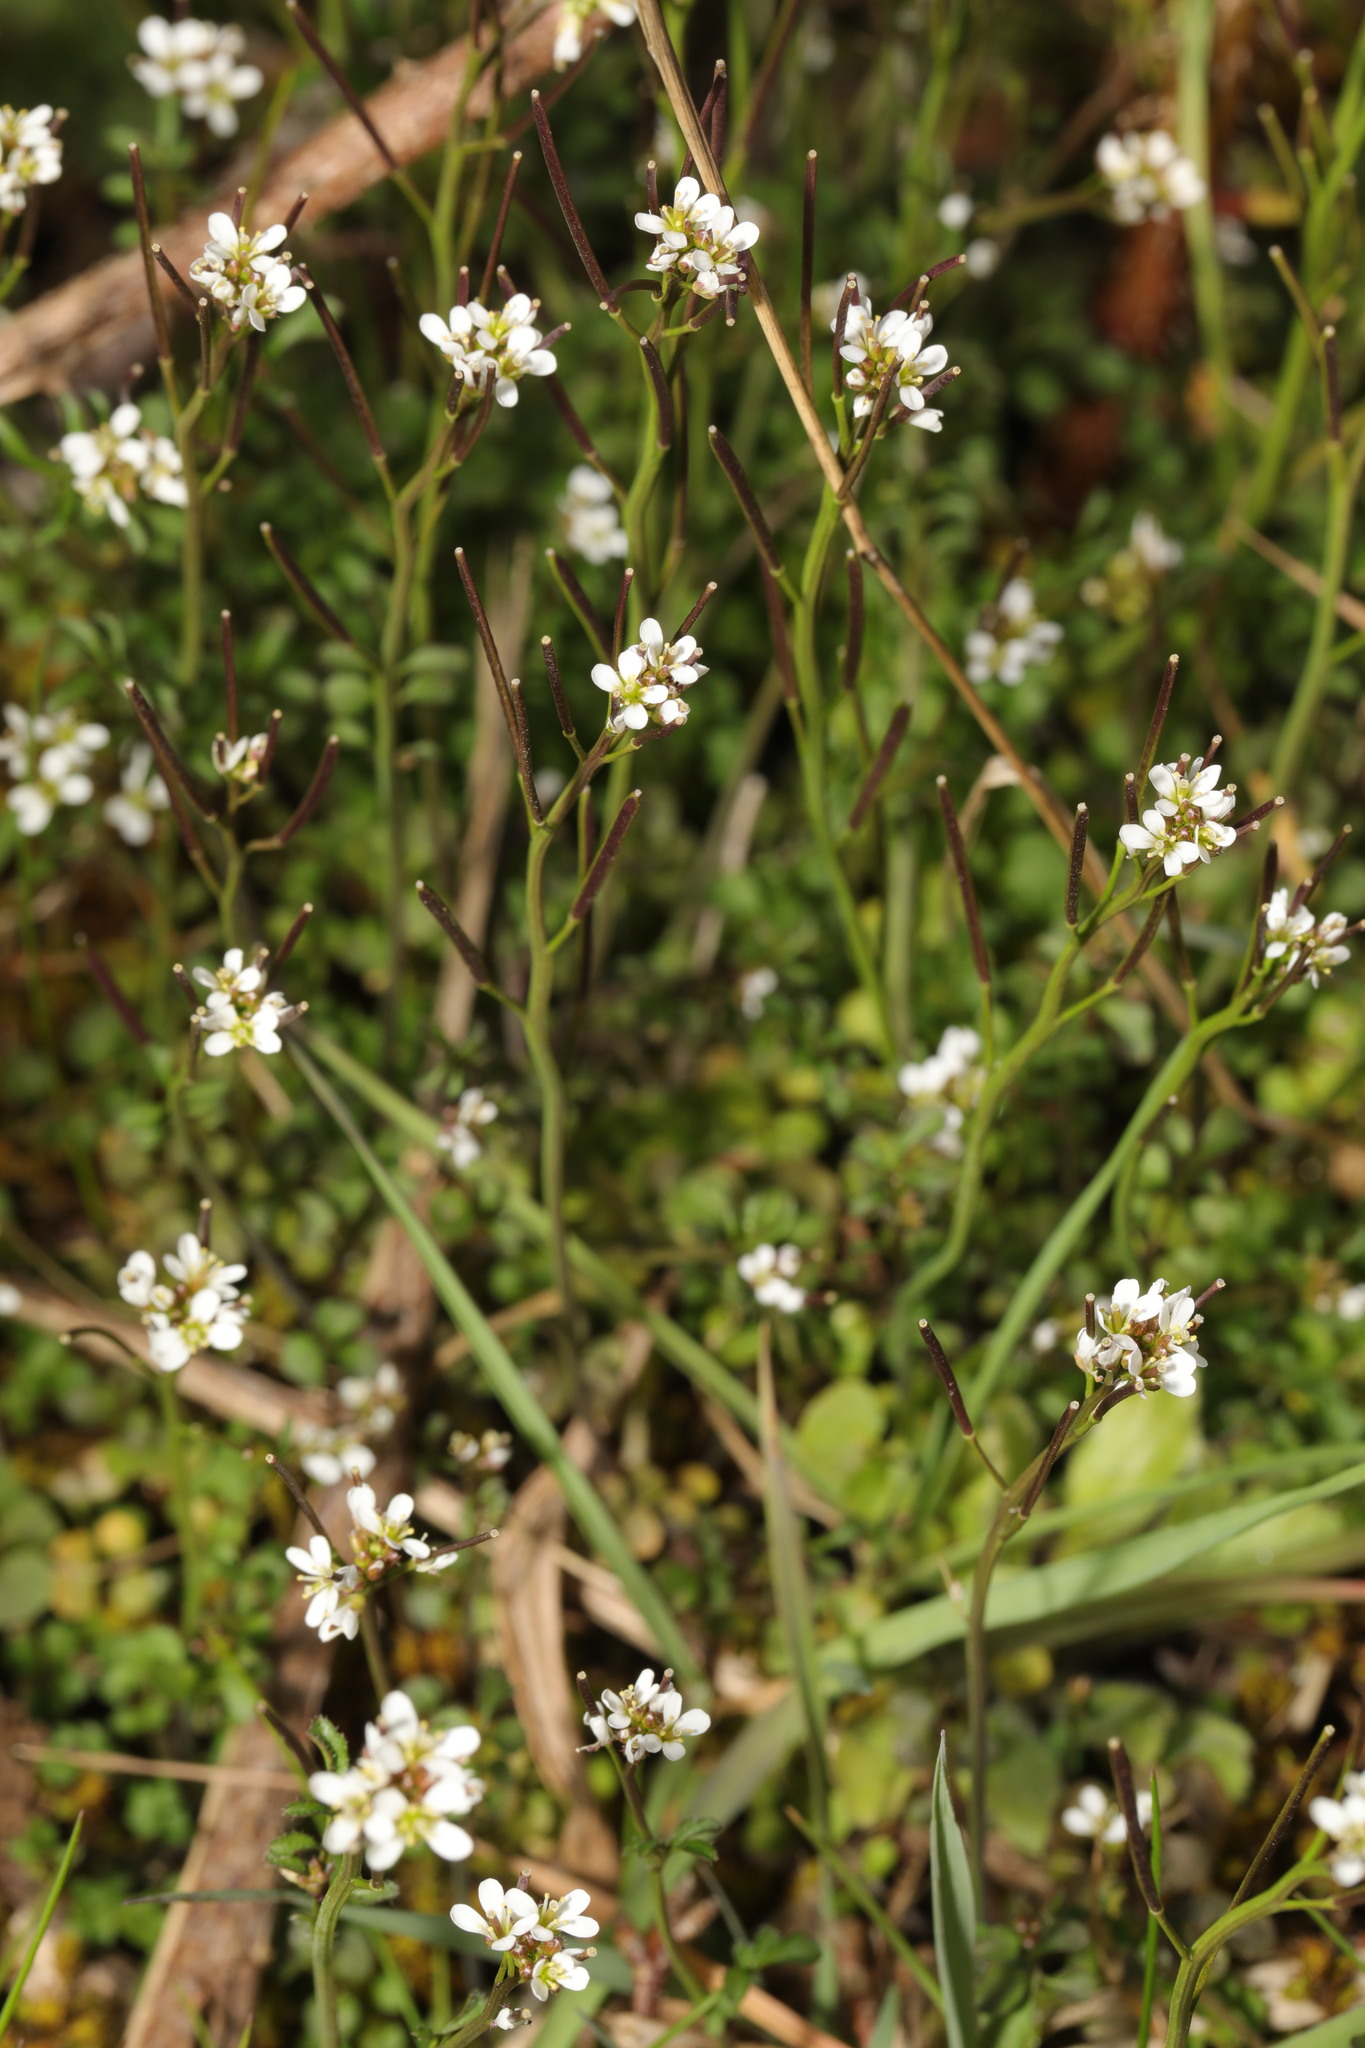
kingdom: Plantae
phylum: Tracheophyta
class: Magnoliopsida
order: Brassicales
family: Brassicaceae
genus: Cardamine
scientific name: Cardamine hirsuta
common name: Hairy bittercress
